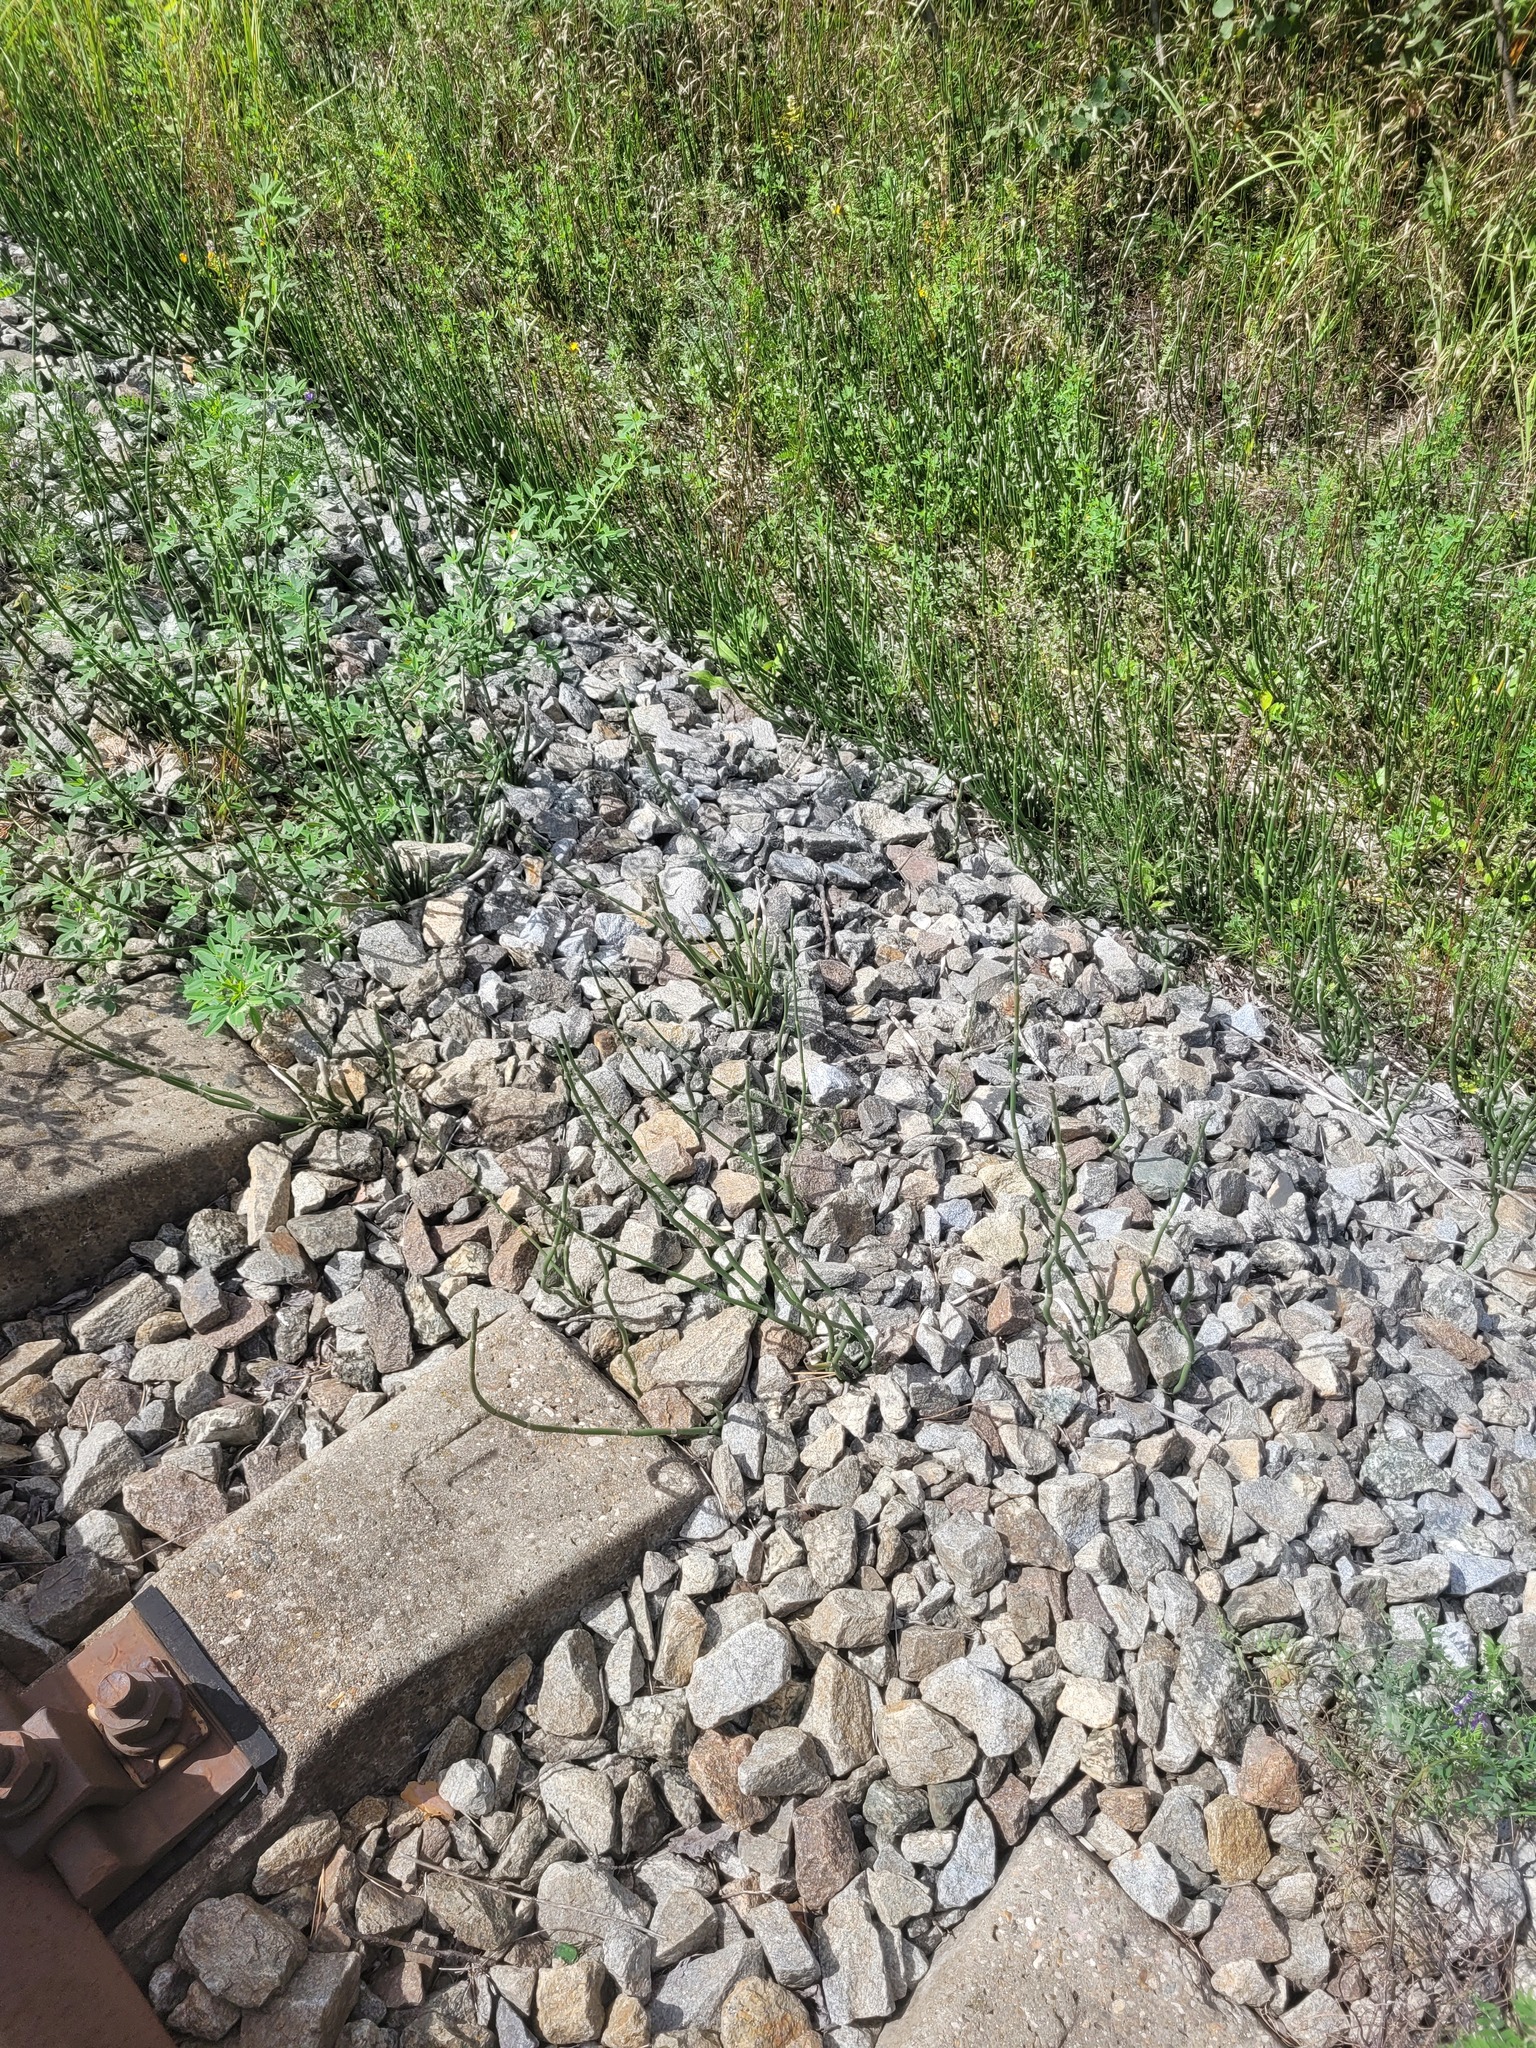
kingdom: Plantae
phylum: Tracheophyta
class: Polypodiopsida
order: Equisetales
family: Equisetaceae
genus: Equisetum
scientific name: Equisetum hyemale
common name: Rough horsetail
